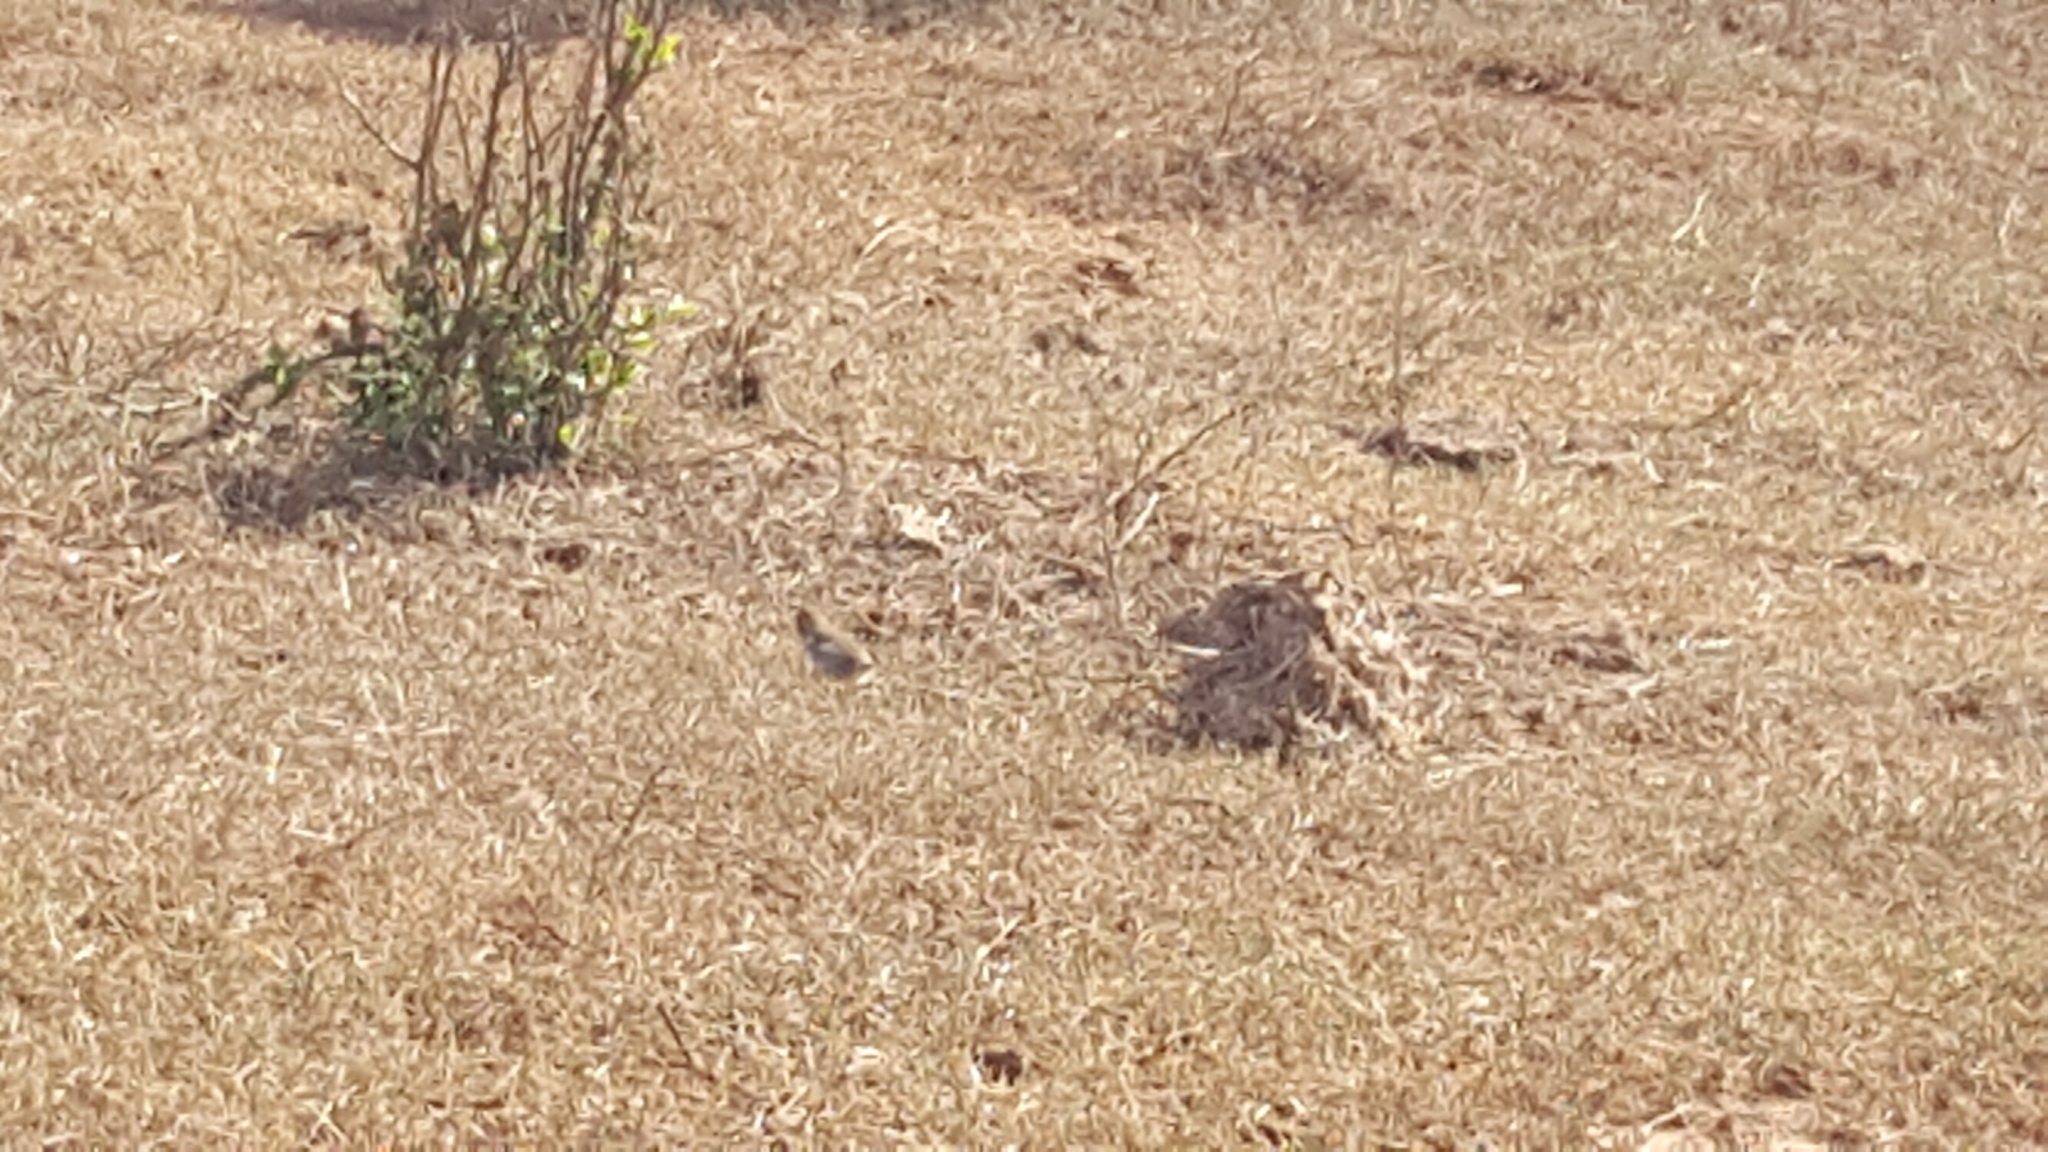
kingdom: Animalia
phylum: Chordata
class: Aves
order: Passeriformes
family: Cisticolidae
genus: Cisticola
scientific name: Cisticola fulvicapilla
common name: Neddicky
